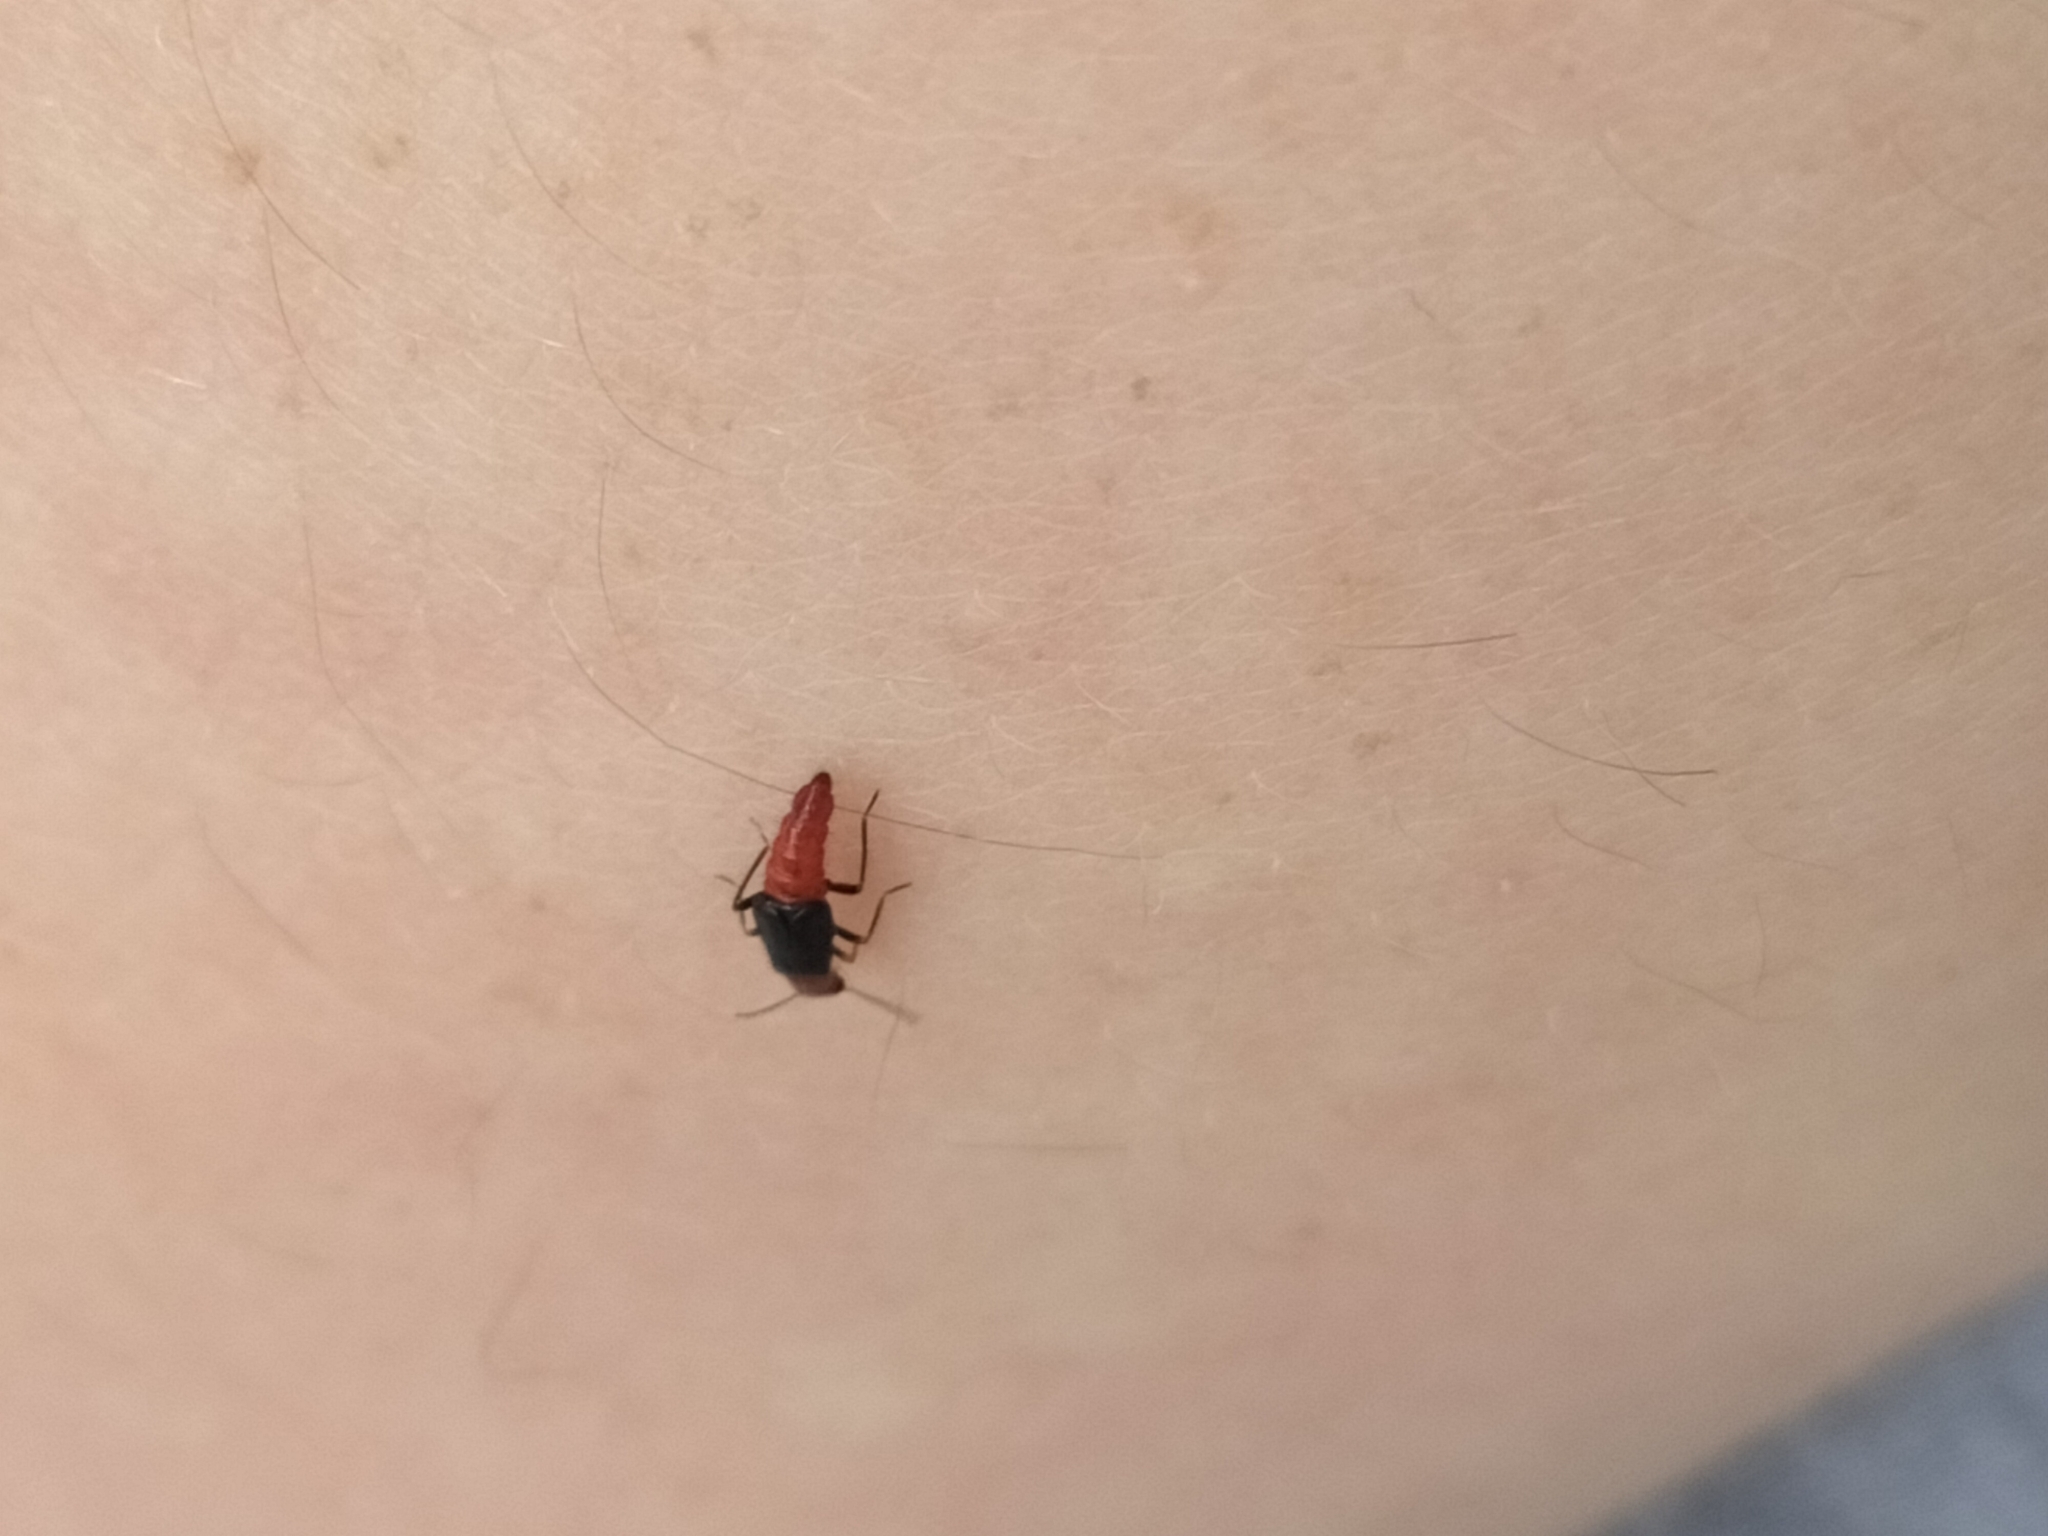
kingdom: Animalia
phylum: Arthropoda
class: Insecta
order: Coleoptera
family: Melyridae
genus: Carphurus
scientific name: Carphurus
